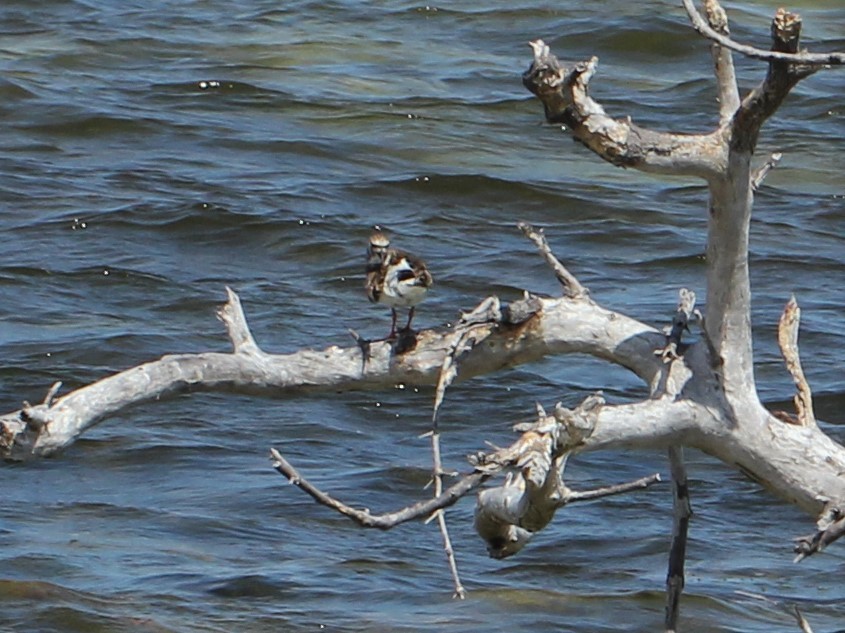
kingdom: Animalia
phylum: Chordata
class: Aves
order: Charadriiformes
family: Scolopacidae
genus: Arenaria
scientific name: Arenaria interpres
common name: Ruddy turnstone
